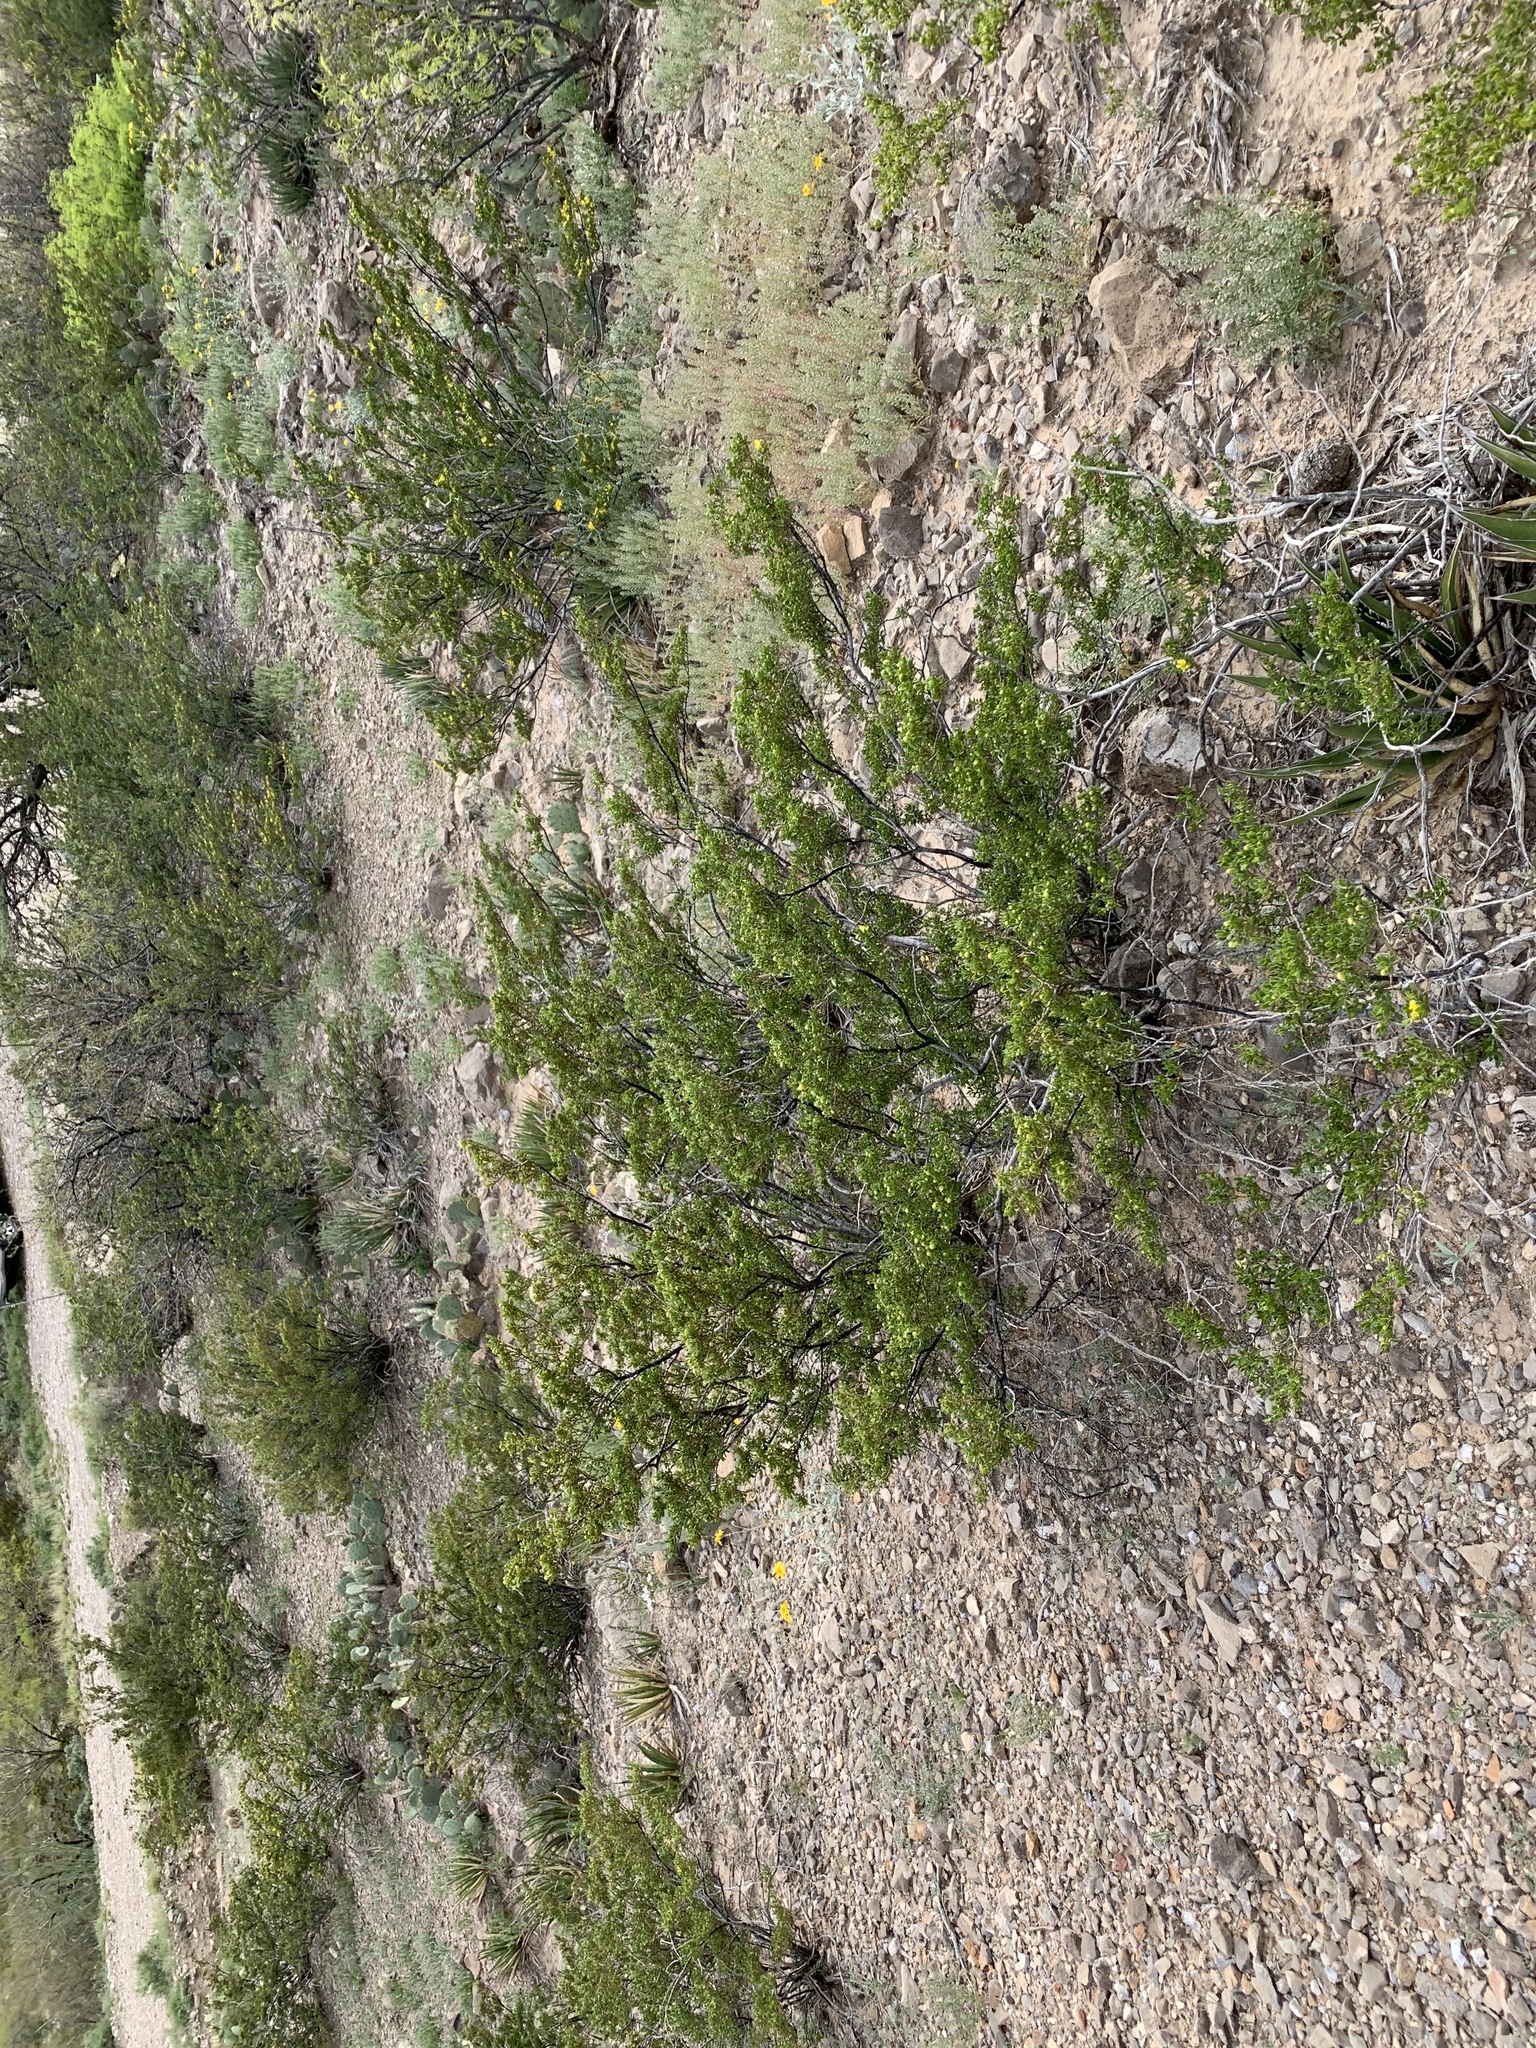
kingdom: Plantae
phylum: Tracheophyta
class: Magnoliopsida
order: Zygophyllales
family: Zygophyllaceae
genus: Larrea
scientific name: Larrea tridentata
